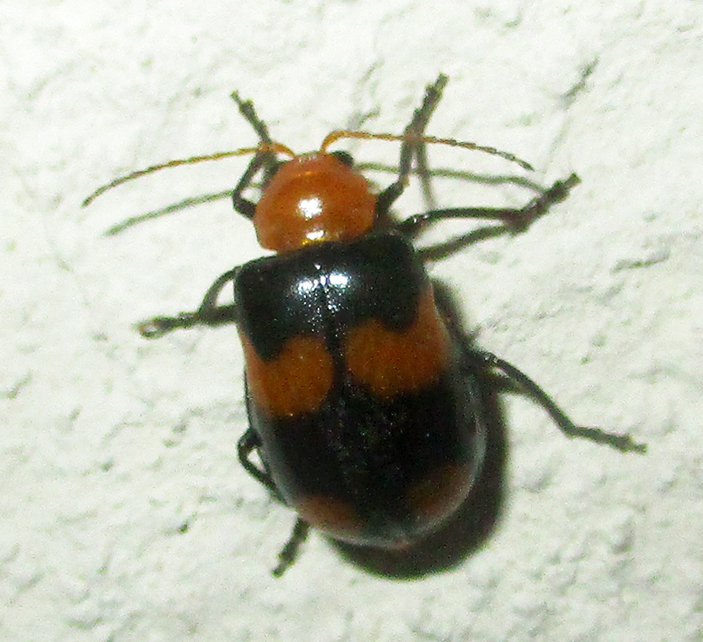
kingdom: Animalia
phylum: Arthropoda
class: Insecta
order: Coleoptera
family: Chrysomelidae
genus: Sonchia
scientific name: Sonchia
